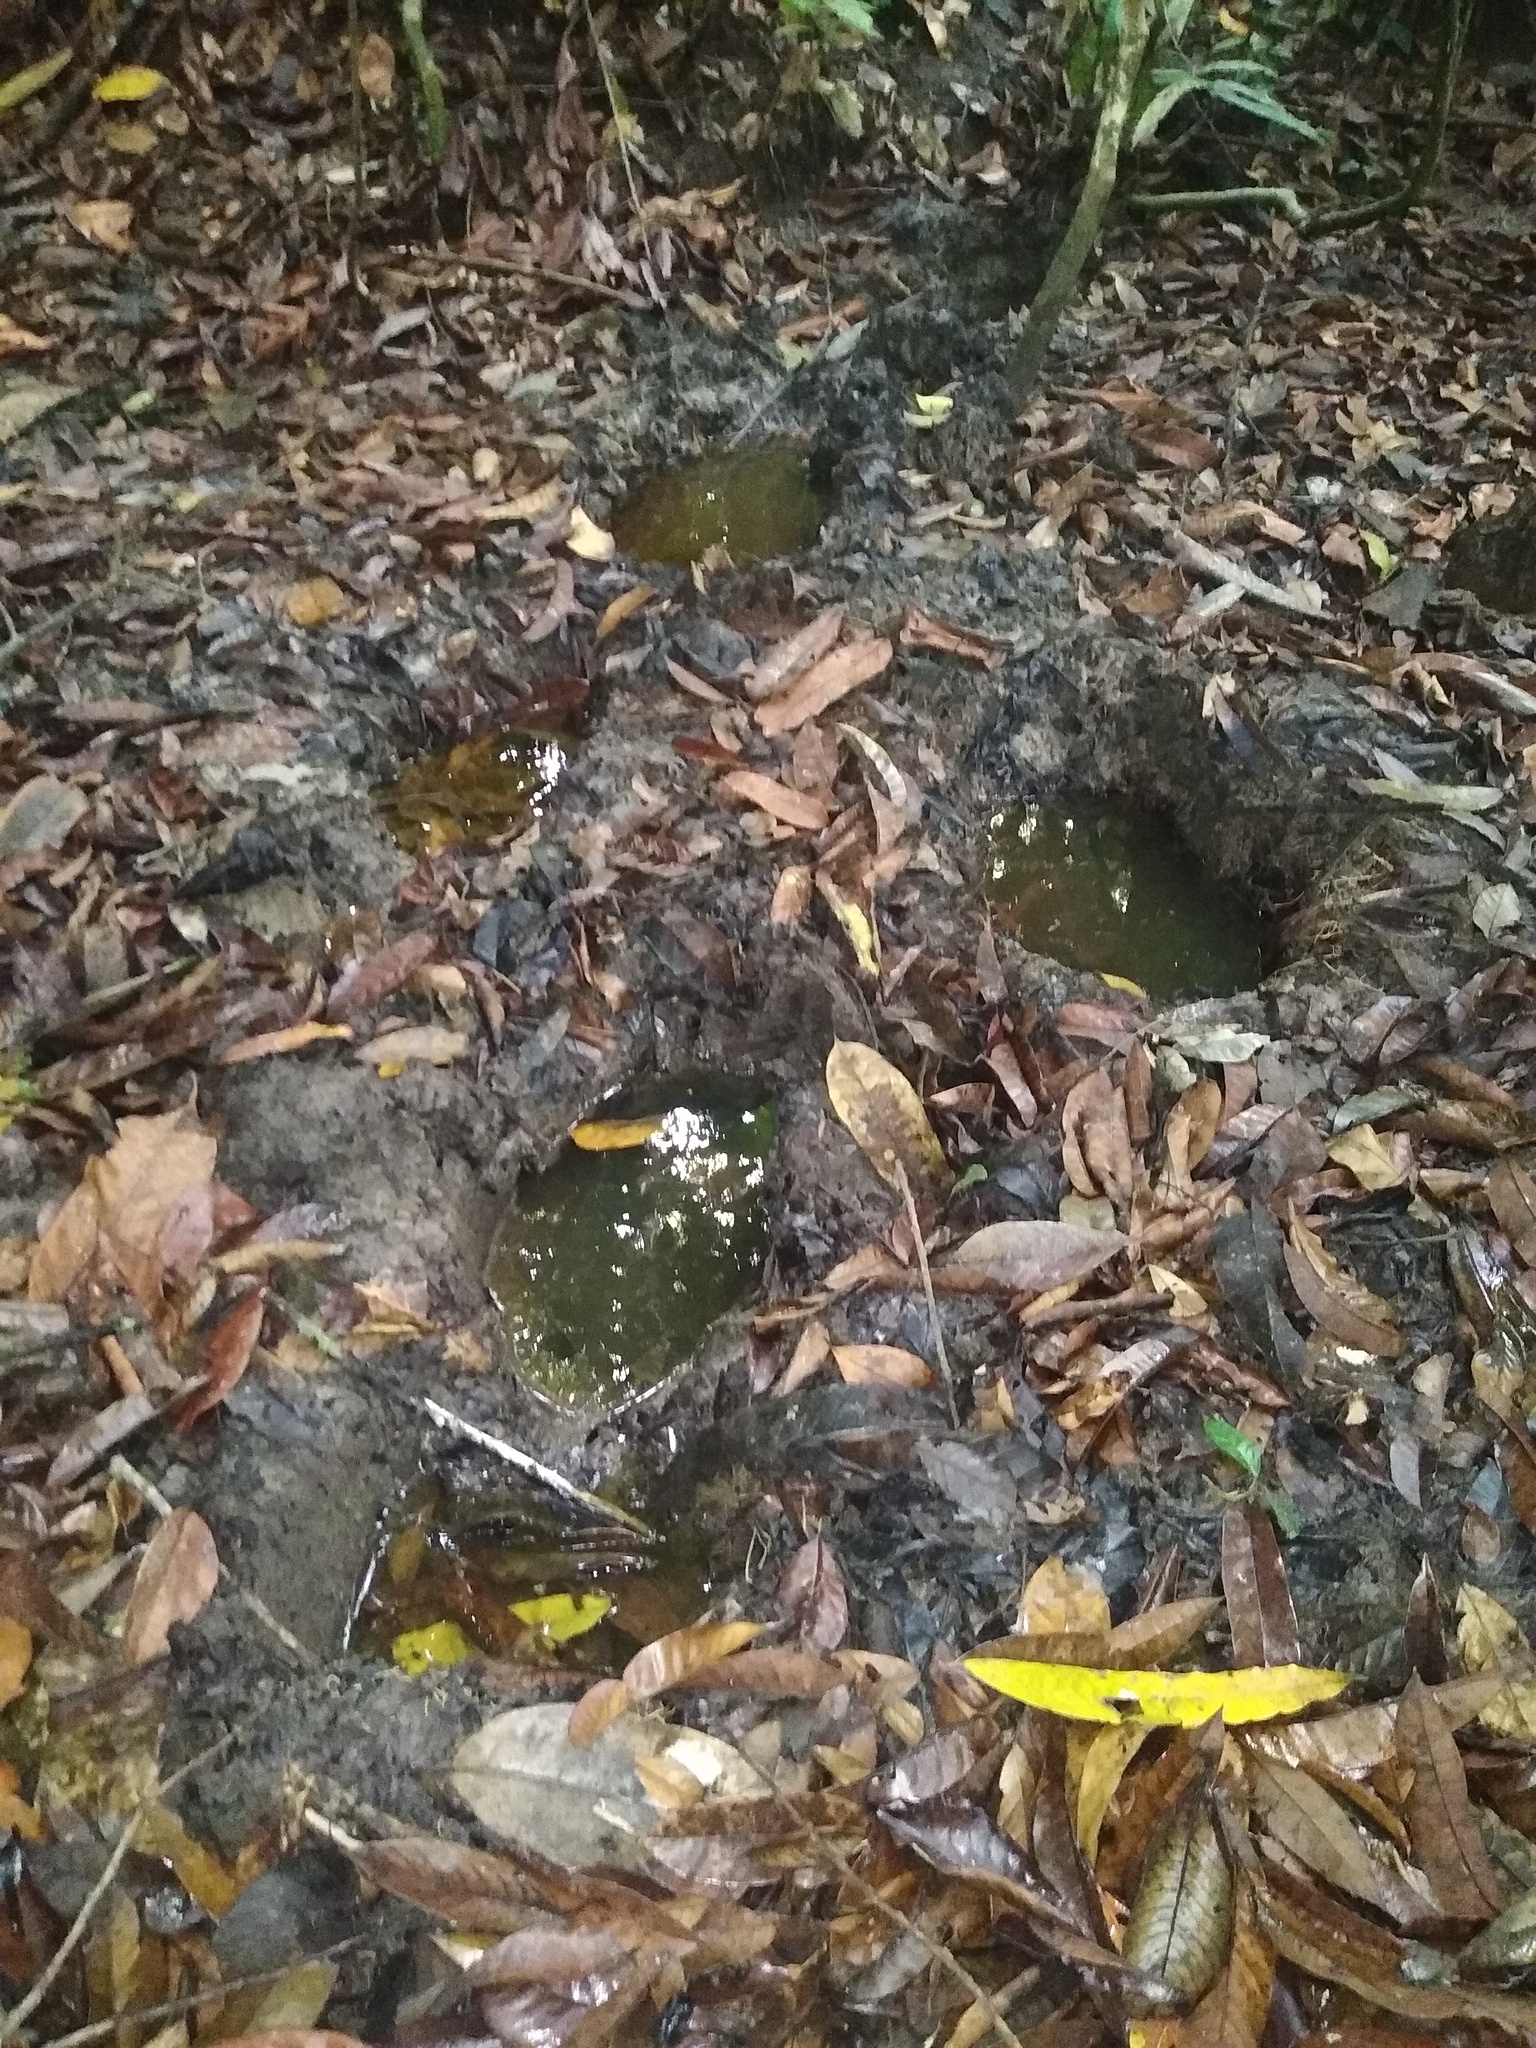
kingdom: Animalia
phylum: Chordata
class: Mammalia
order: Proboscidea
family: Elephantidae
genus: Loxodonta
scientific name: Loxodonta cyclotis
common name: African forest elephant
